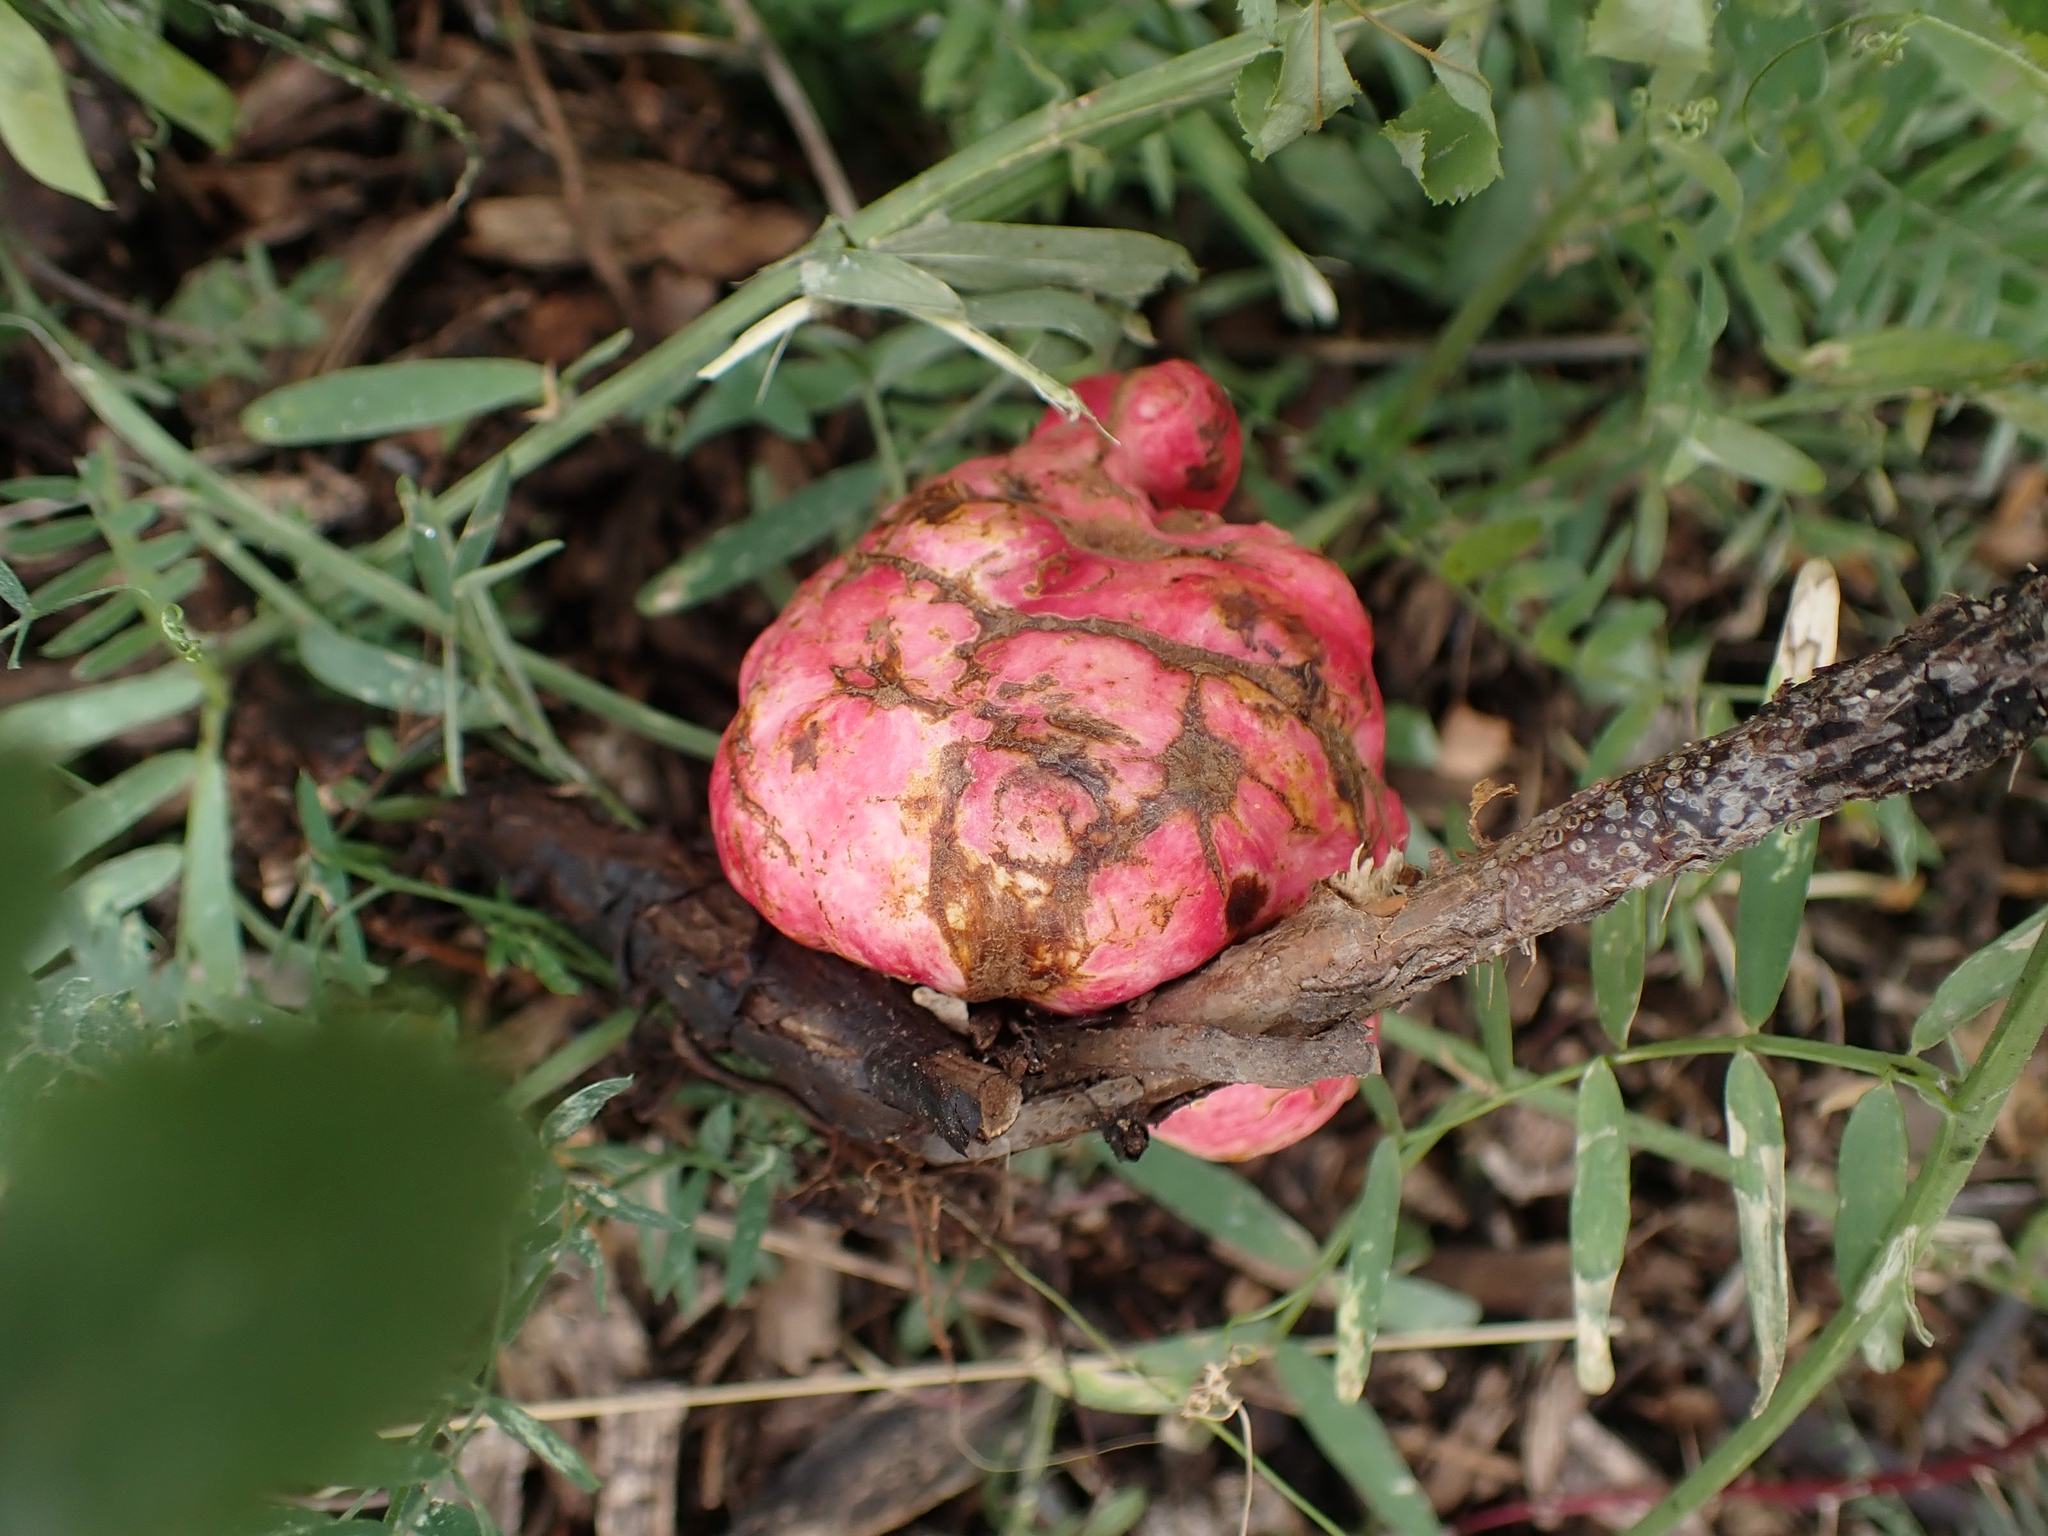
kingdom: Animalia
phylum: Arthropoda
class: Insecta
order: Hymenoptera
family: Cynipidae
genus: Diplolepis
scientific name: Diplolepis radicum
